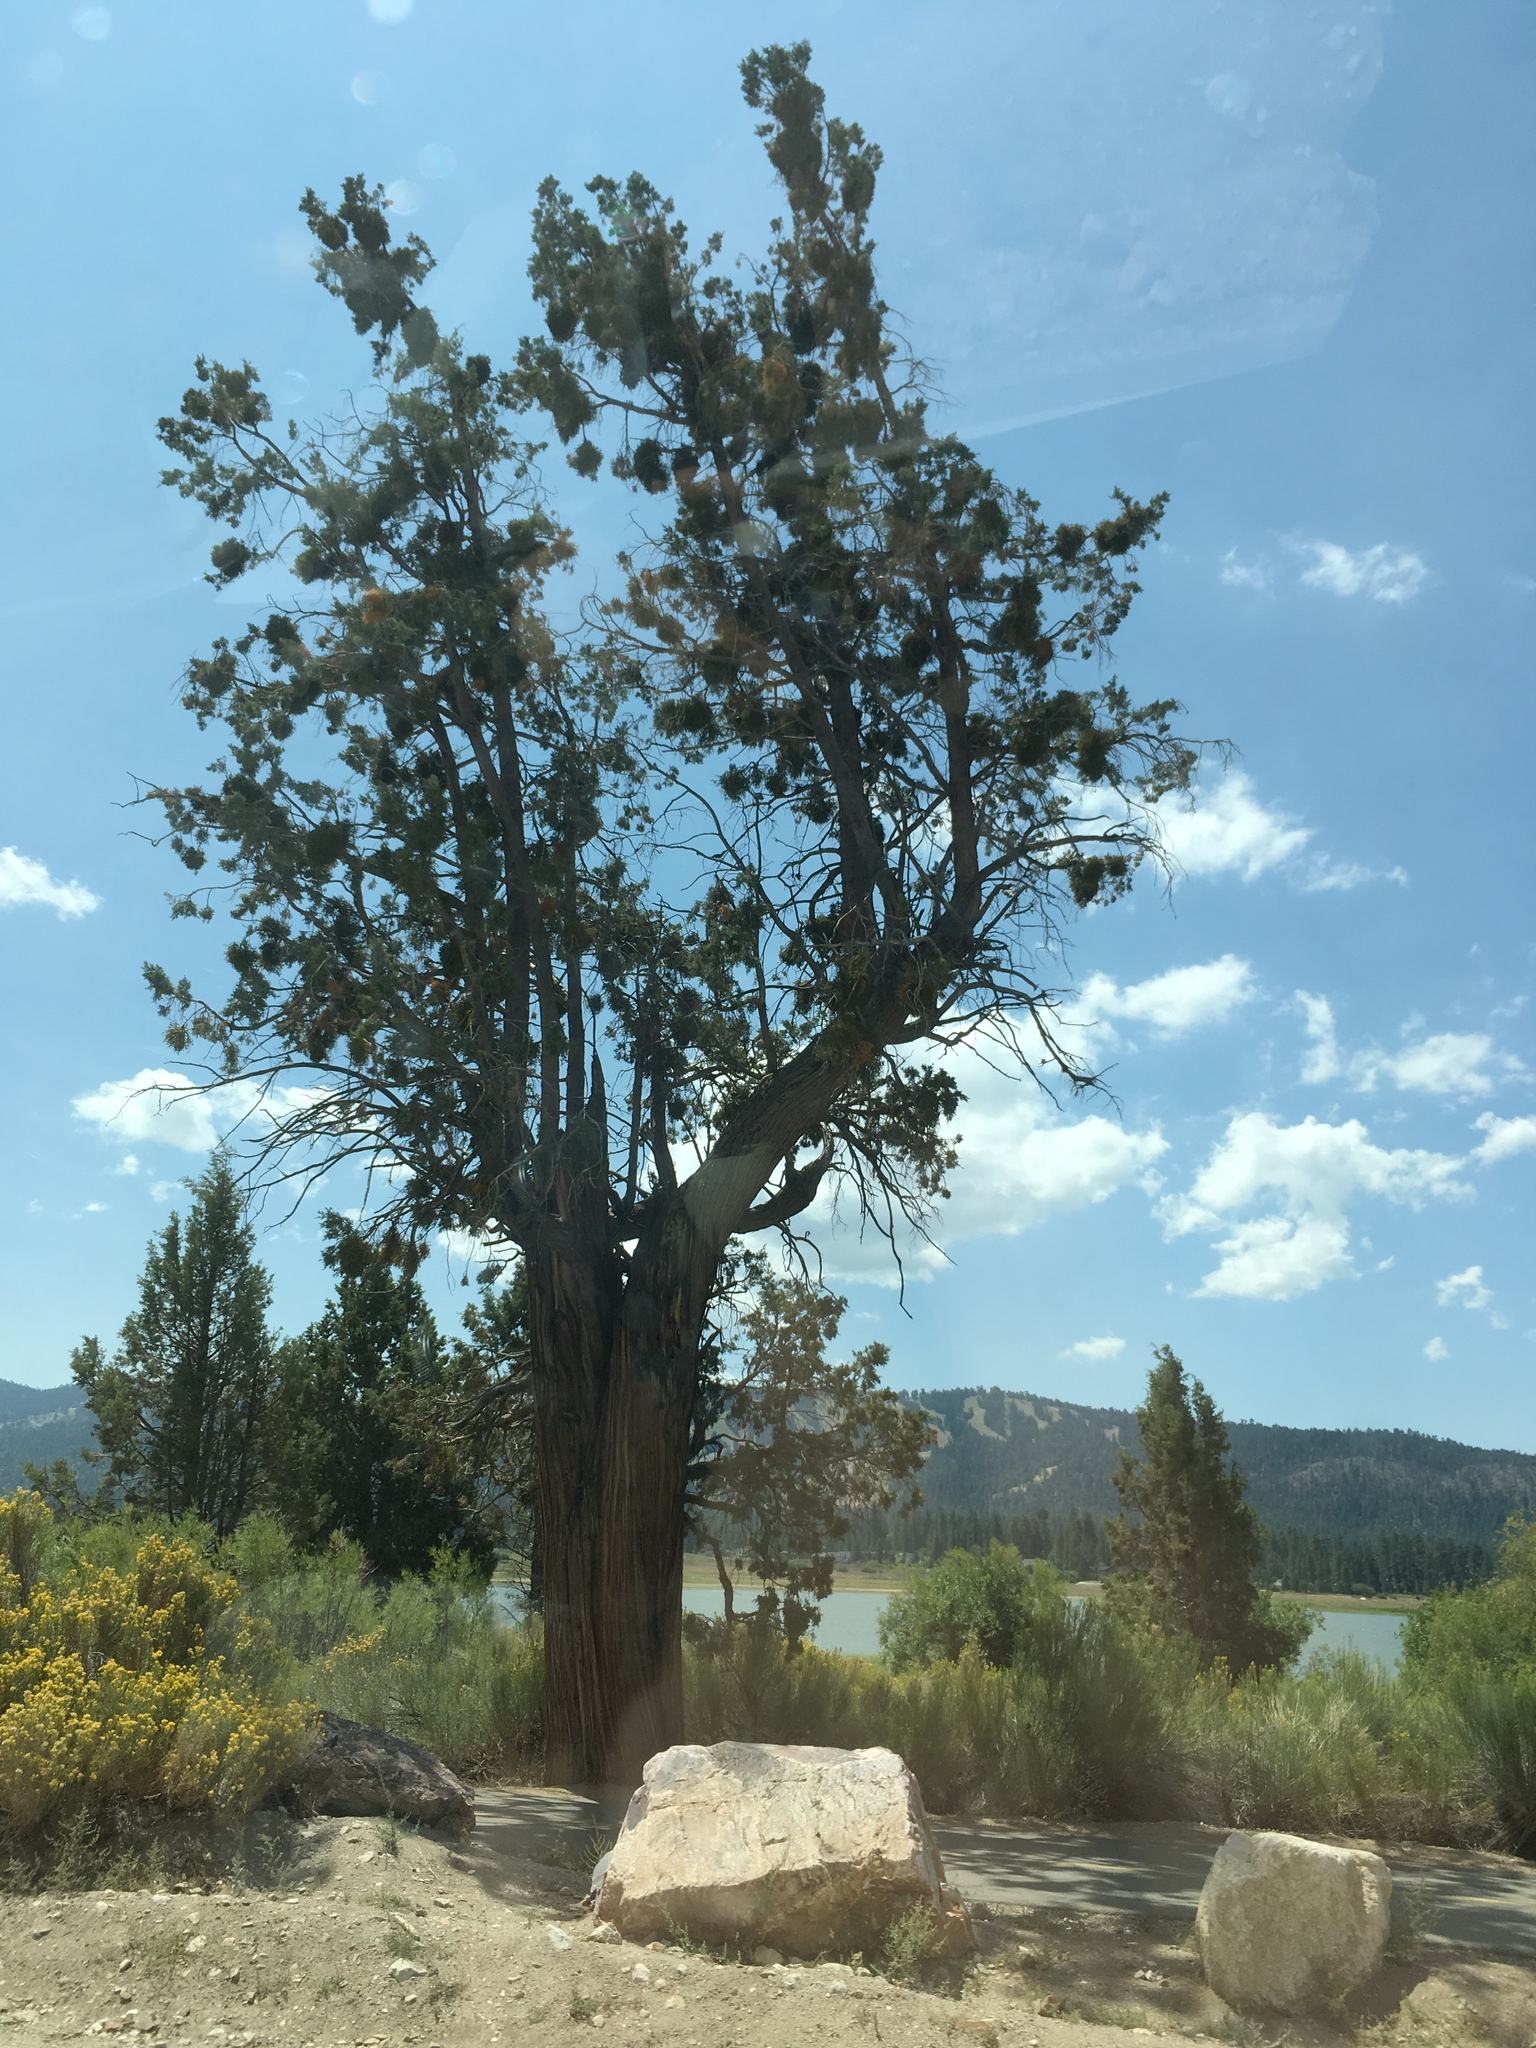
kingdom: Plantae
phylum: Tracheophyta
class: Pinopsida
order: Pinales
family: Cupressaceae
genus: Juniperus
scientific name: Juniperus occidentalis
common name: Western juniper
